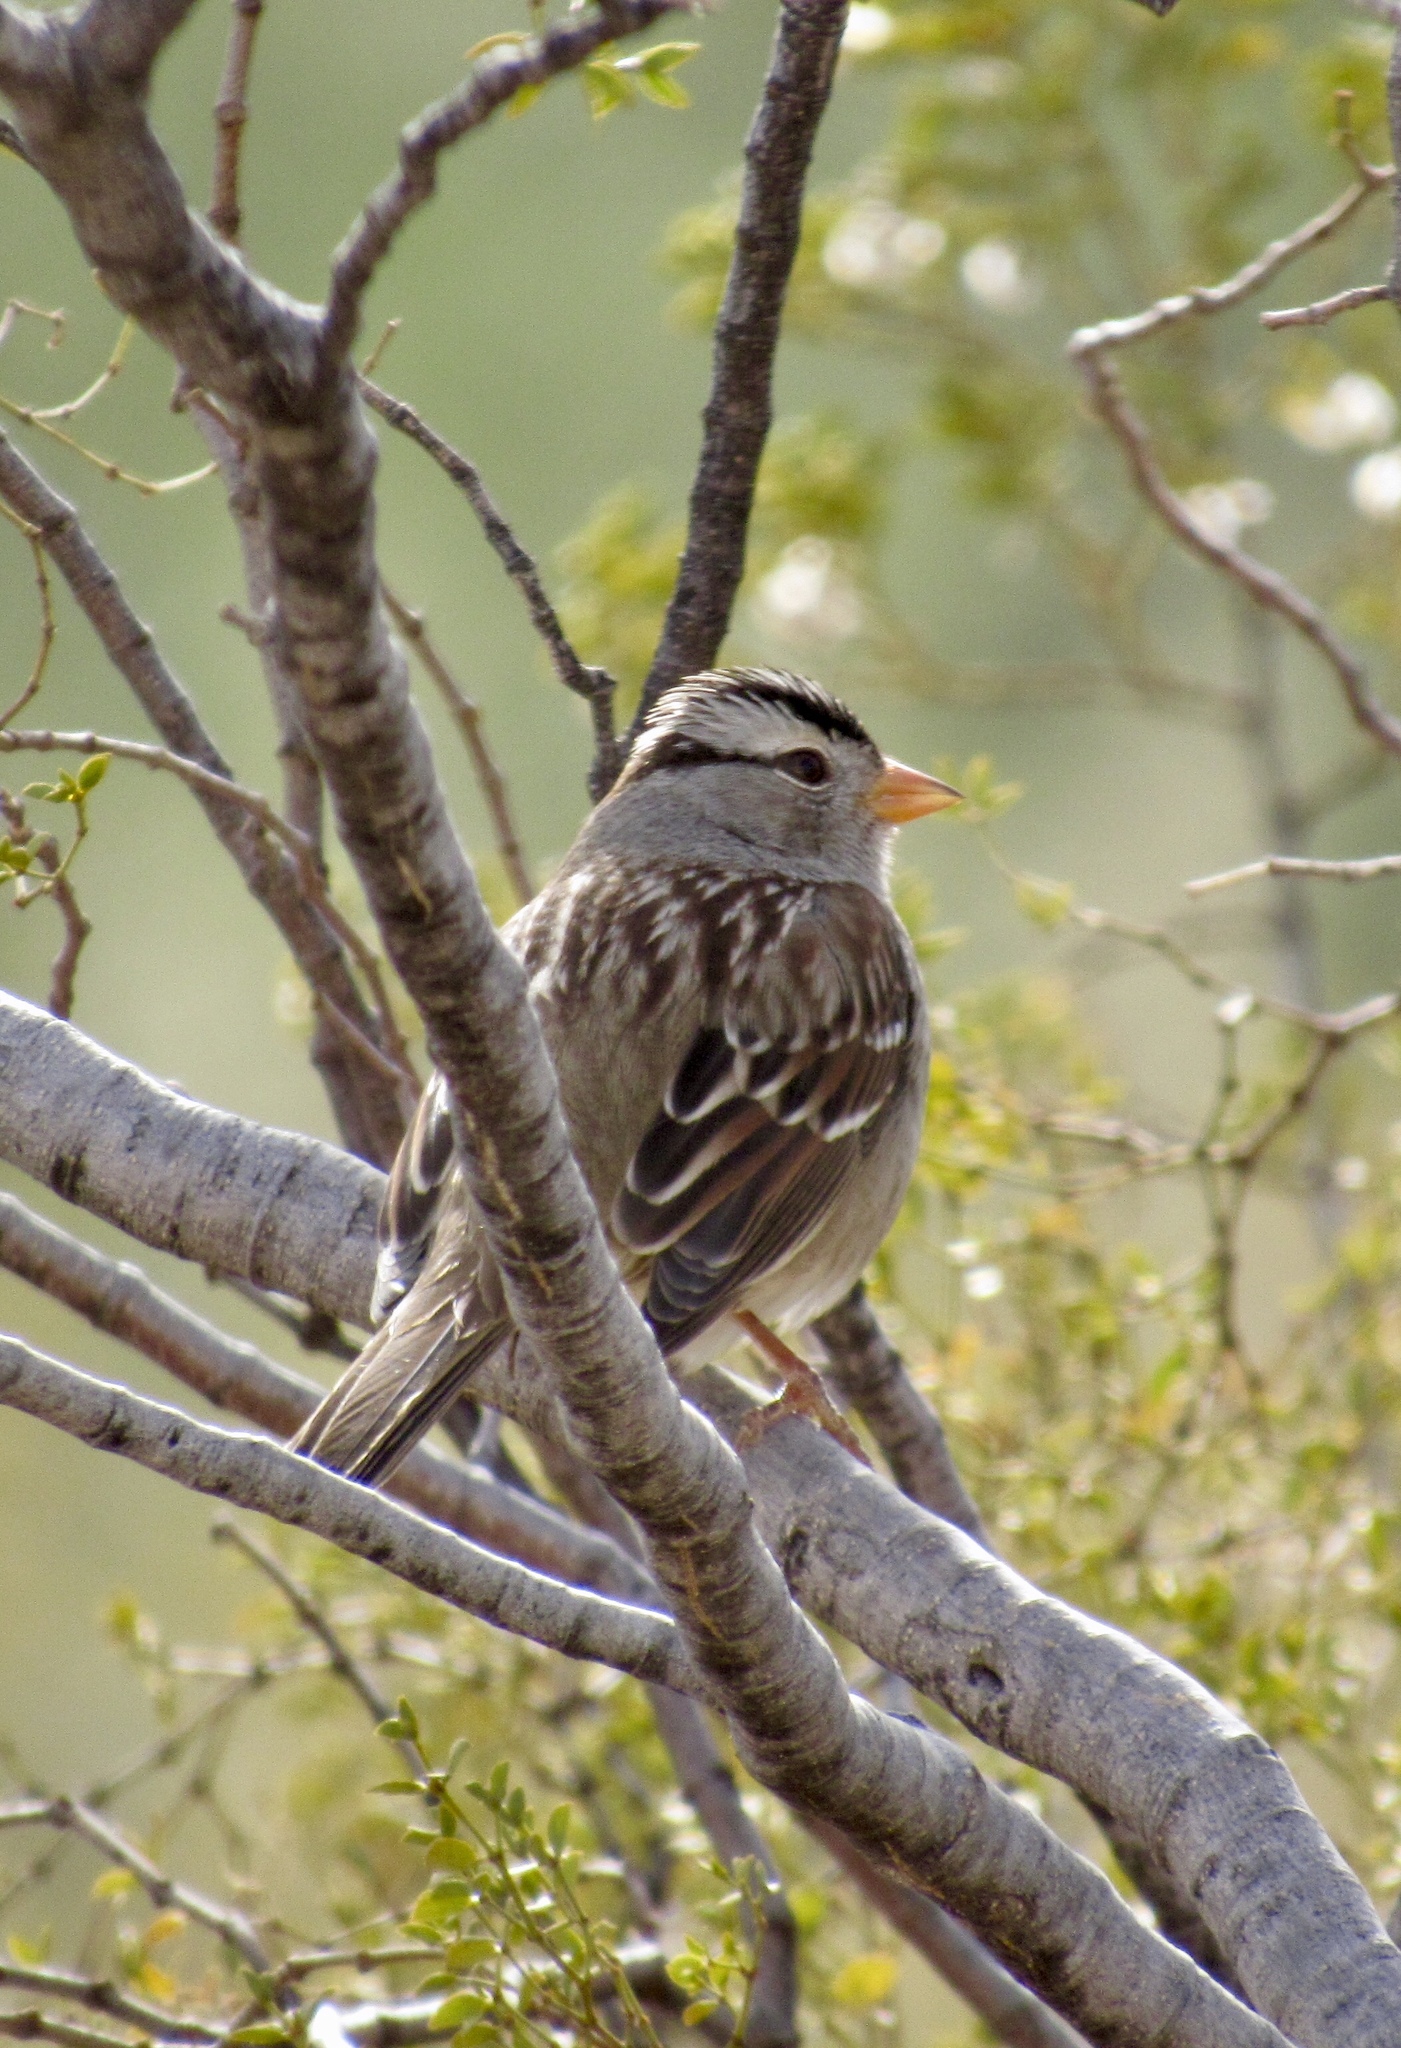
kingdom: Animalia
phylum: Chordata
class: Aves
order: Passeriformes
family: Passerellidae
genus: Zonotrichia
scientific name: Zonotrichia leucophrys
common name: White-crowned sparrow
